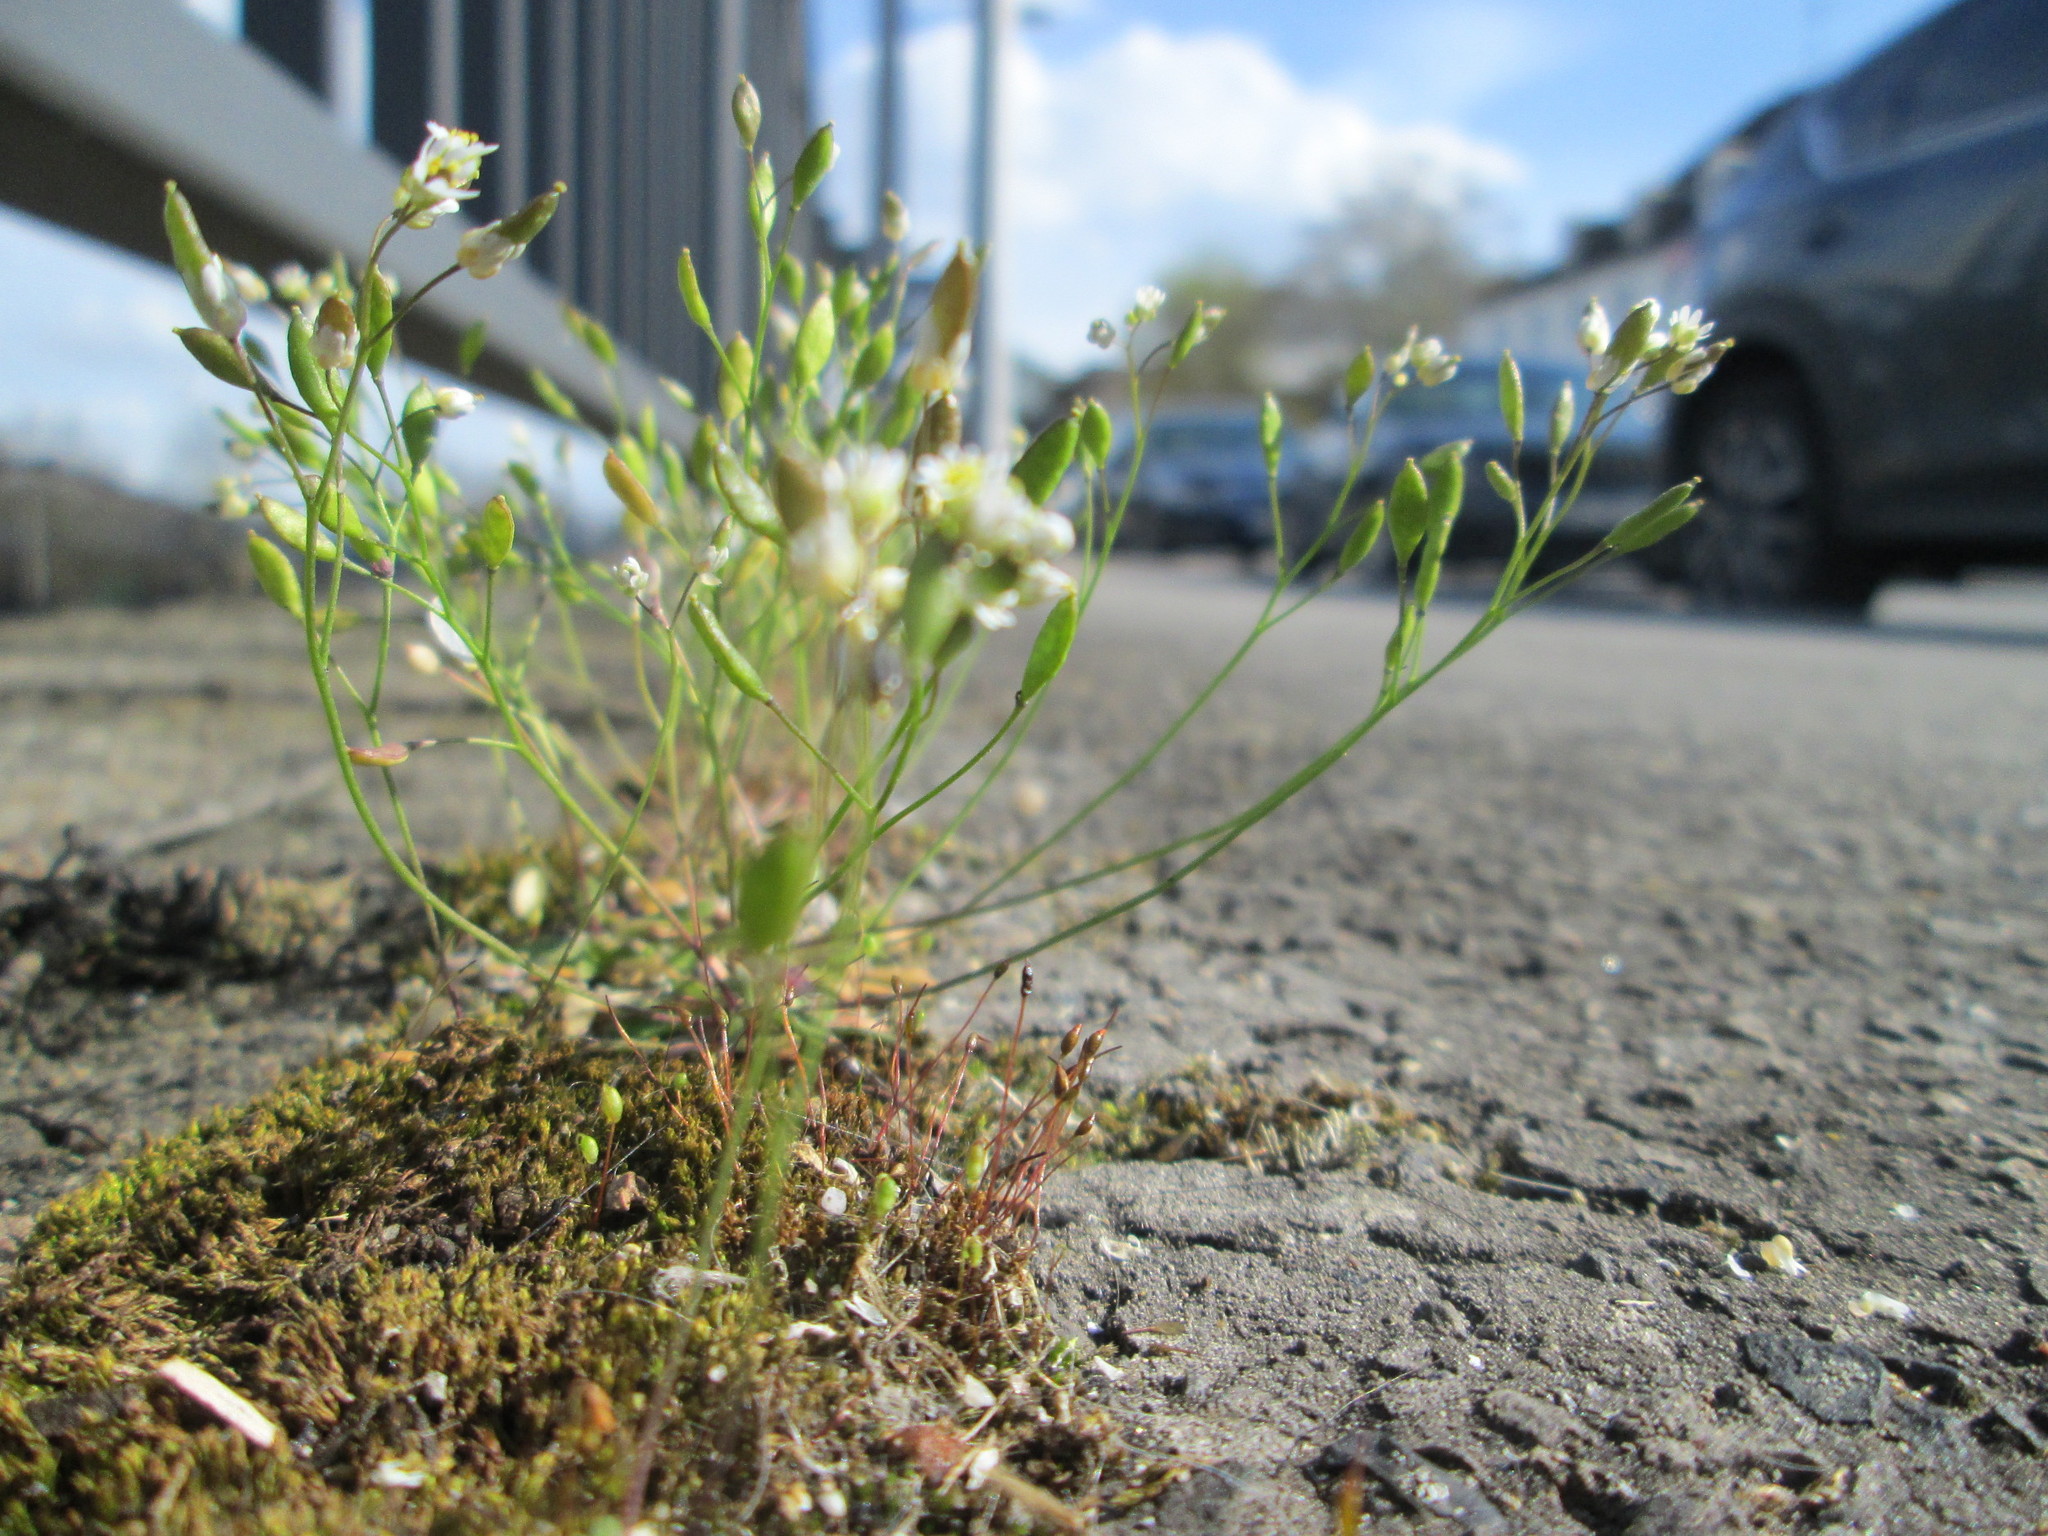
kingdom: Plantae
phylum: Tracheophyta
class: Magnoliopsida
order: Brassicales
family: Brassicaceae
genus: Draba
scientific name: Draba verna
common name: Spring draba
